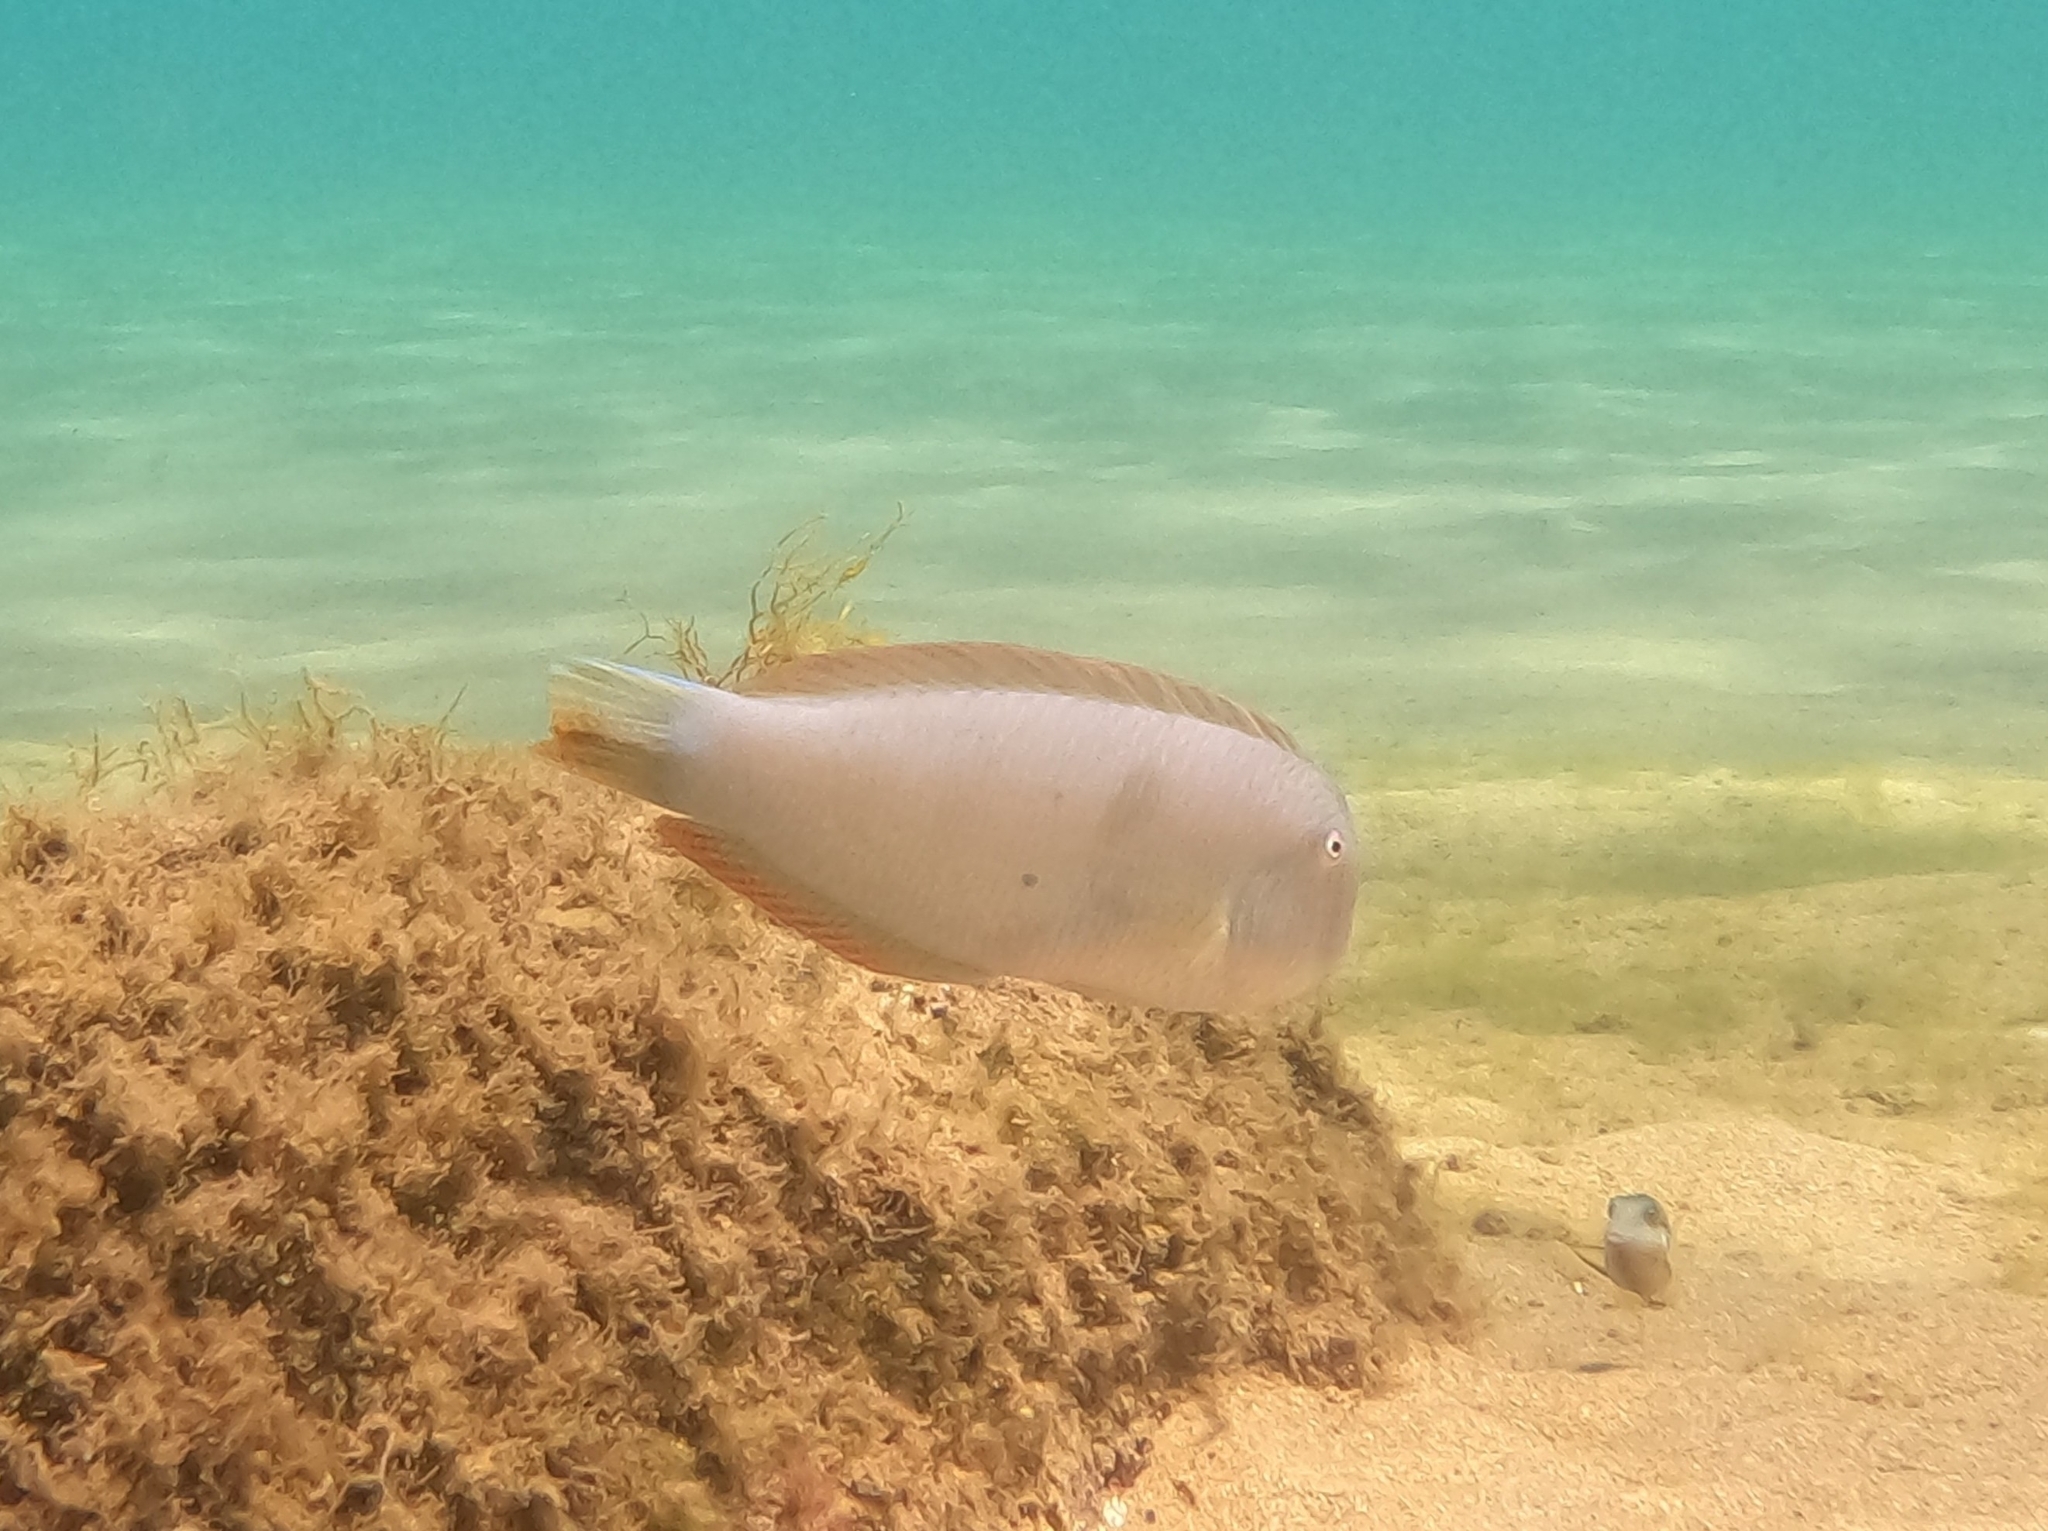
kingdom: Animalia
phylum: Chordata
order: Perciformes
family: Labridae
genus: Xyrichtys
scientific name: Xyrichtys novacula
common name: Pearly razorfish
